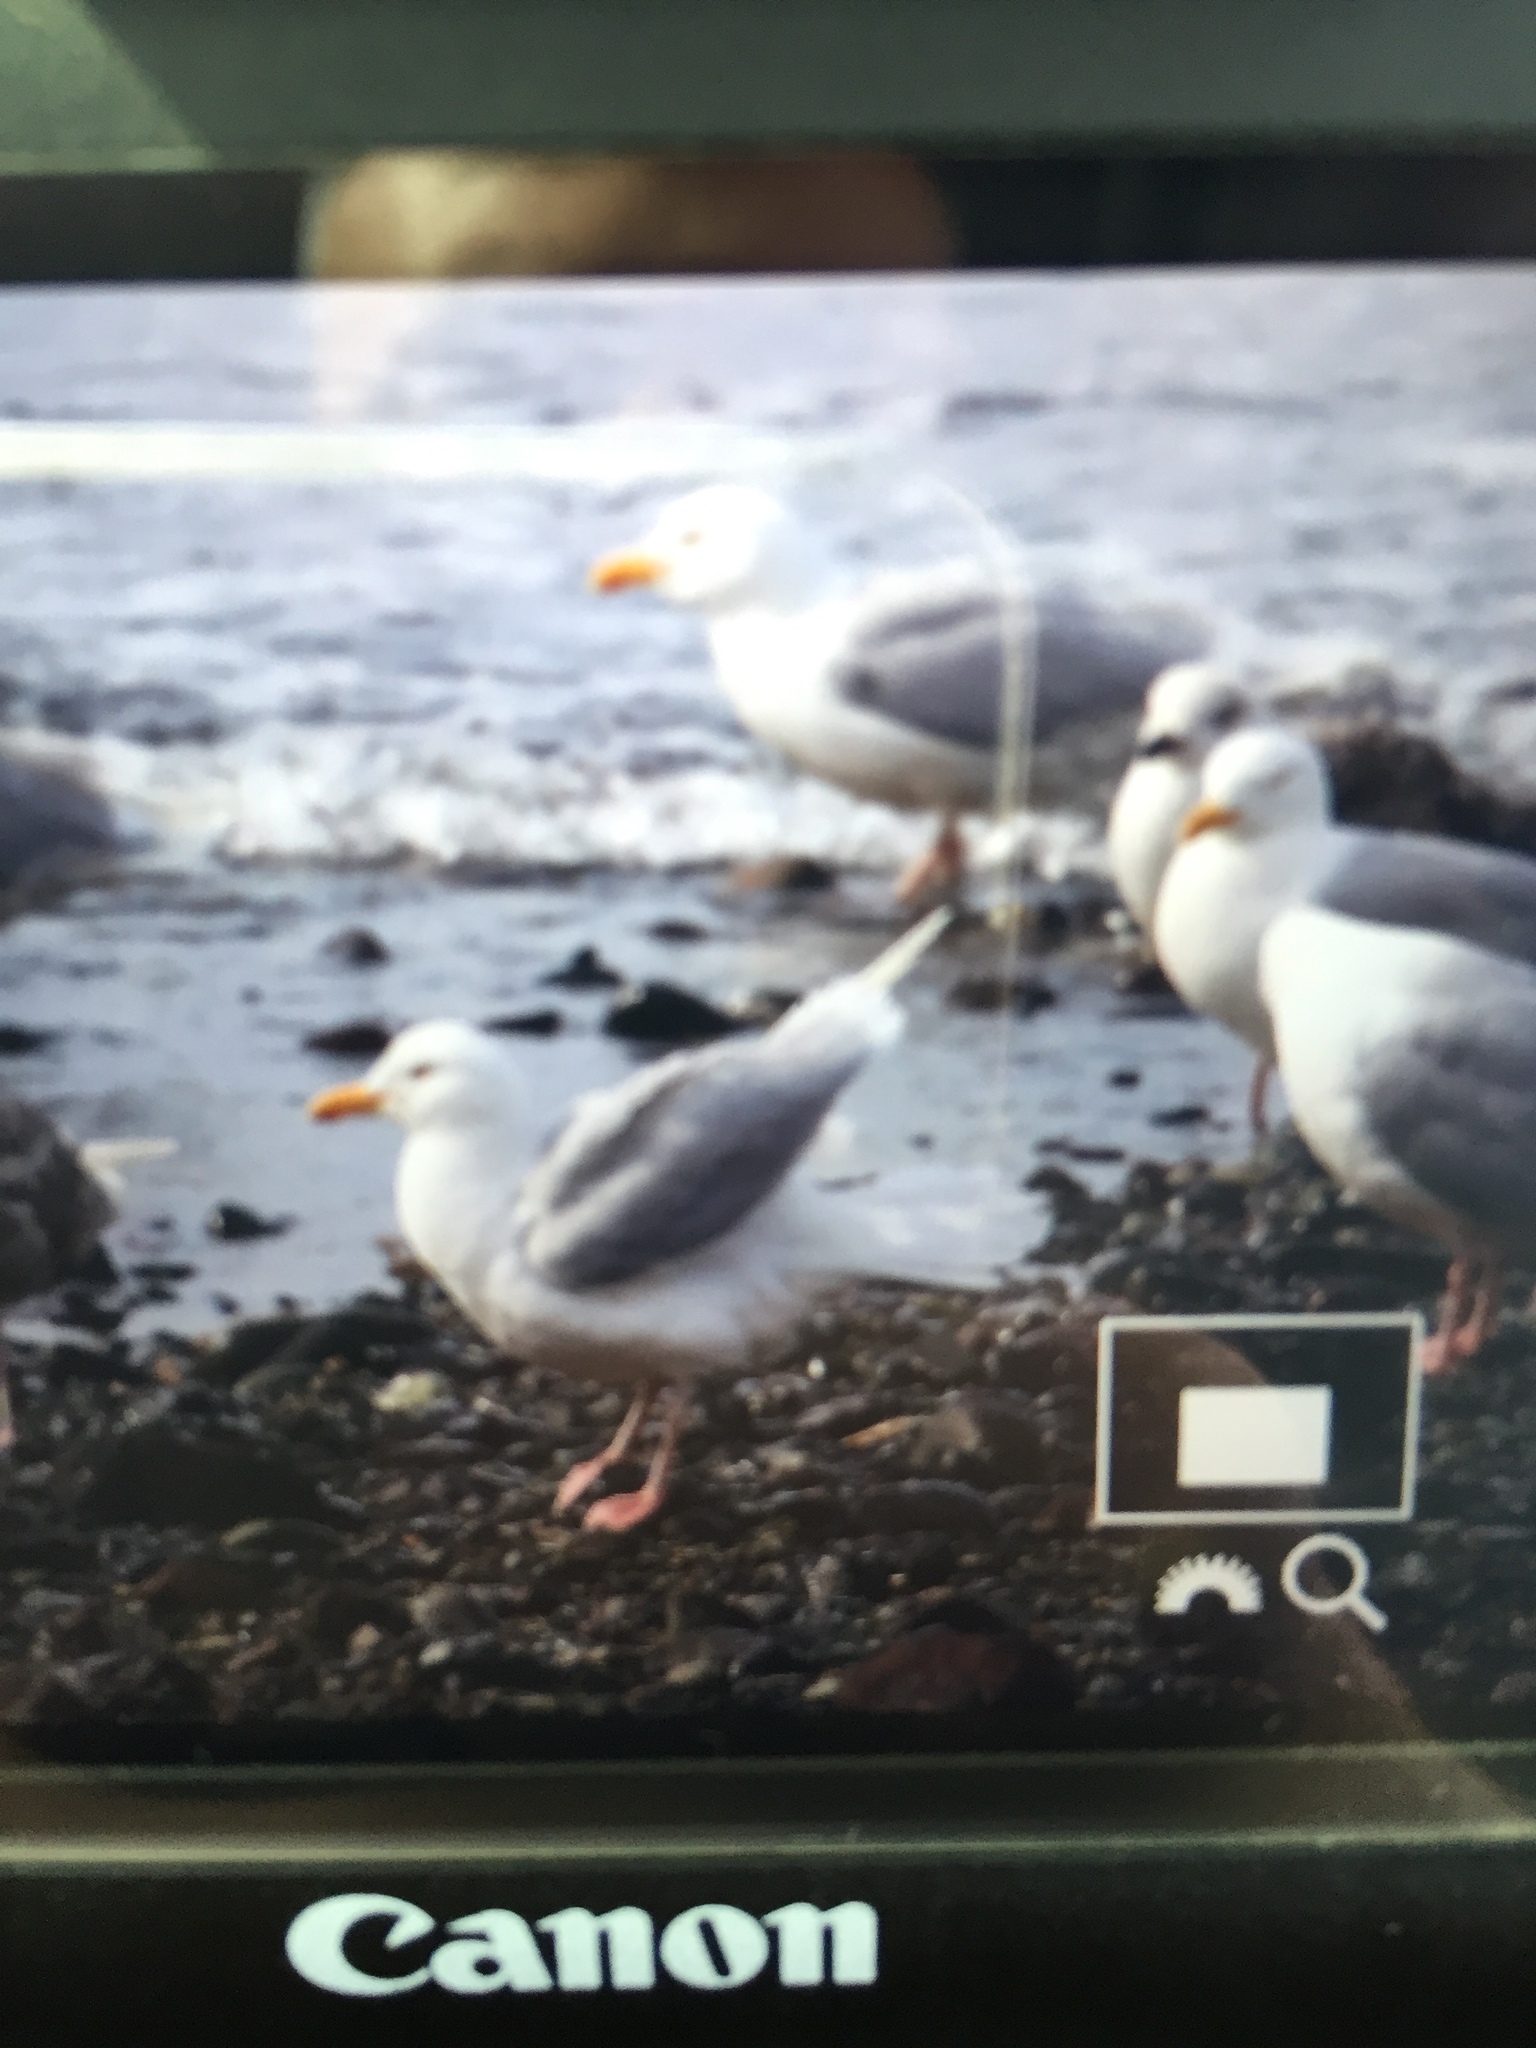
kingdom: Animalia
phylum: Chordata
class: Aves
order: Charadriiformes
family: Laridae
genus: Larus
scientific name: Larus hyperboreus
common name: Glaucous gull
